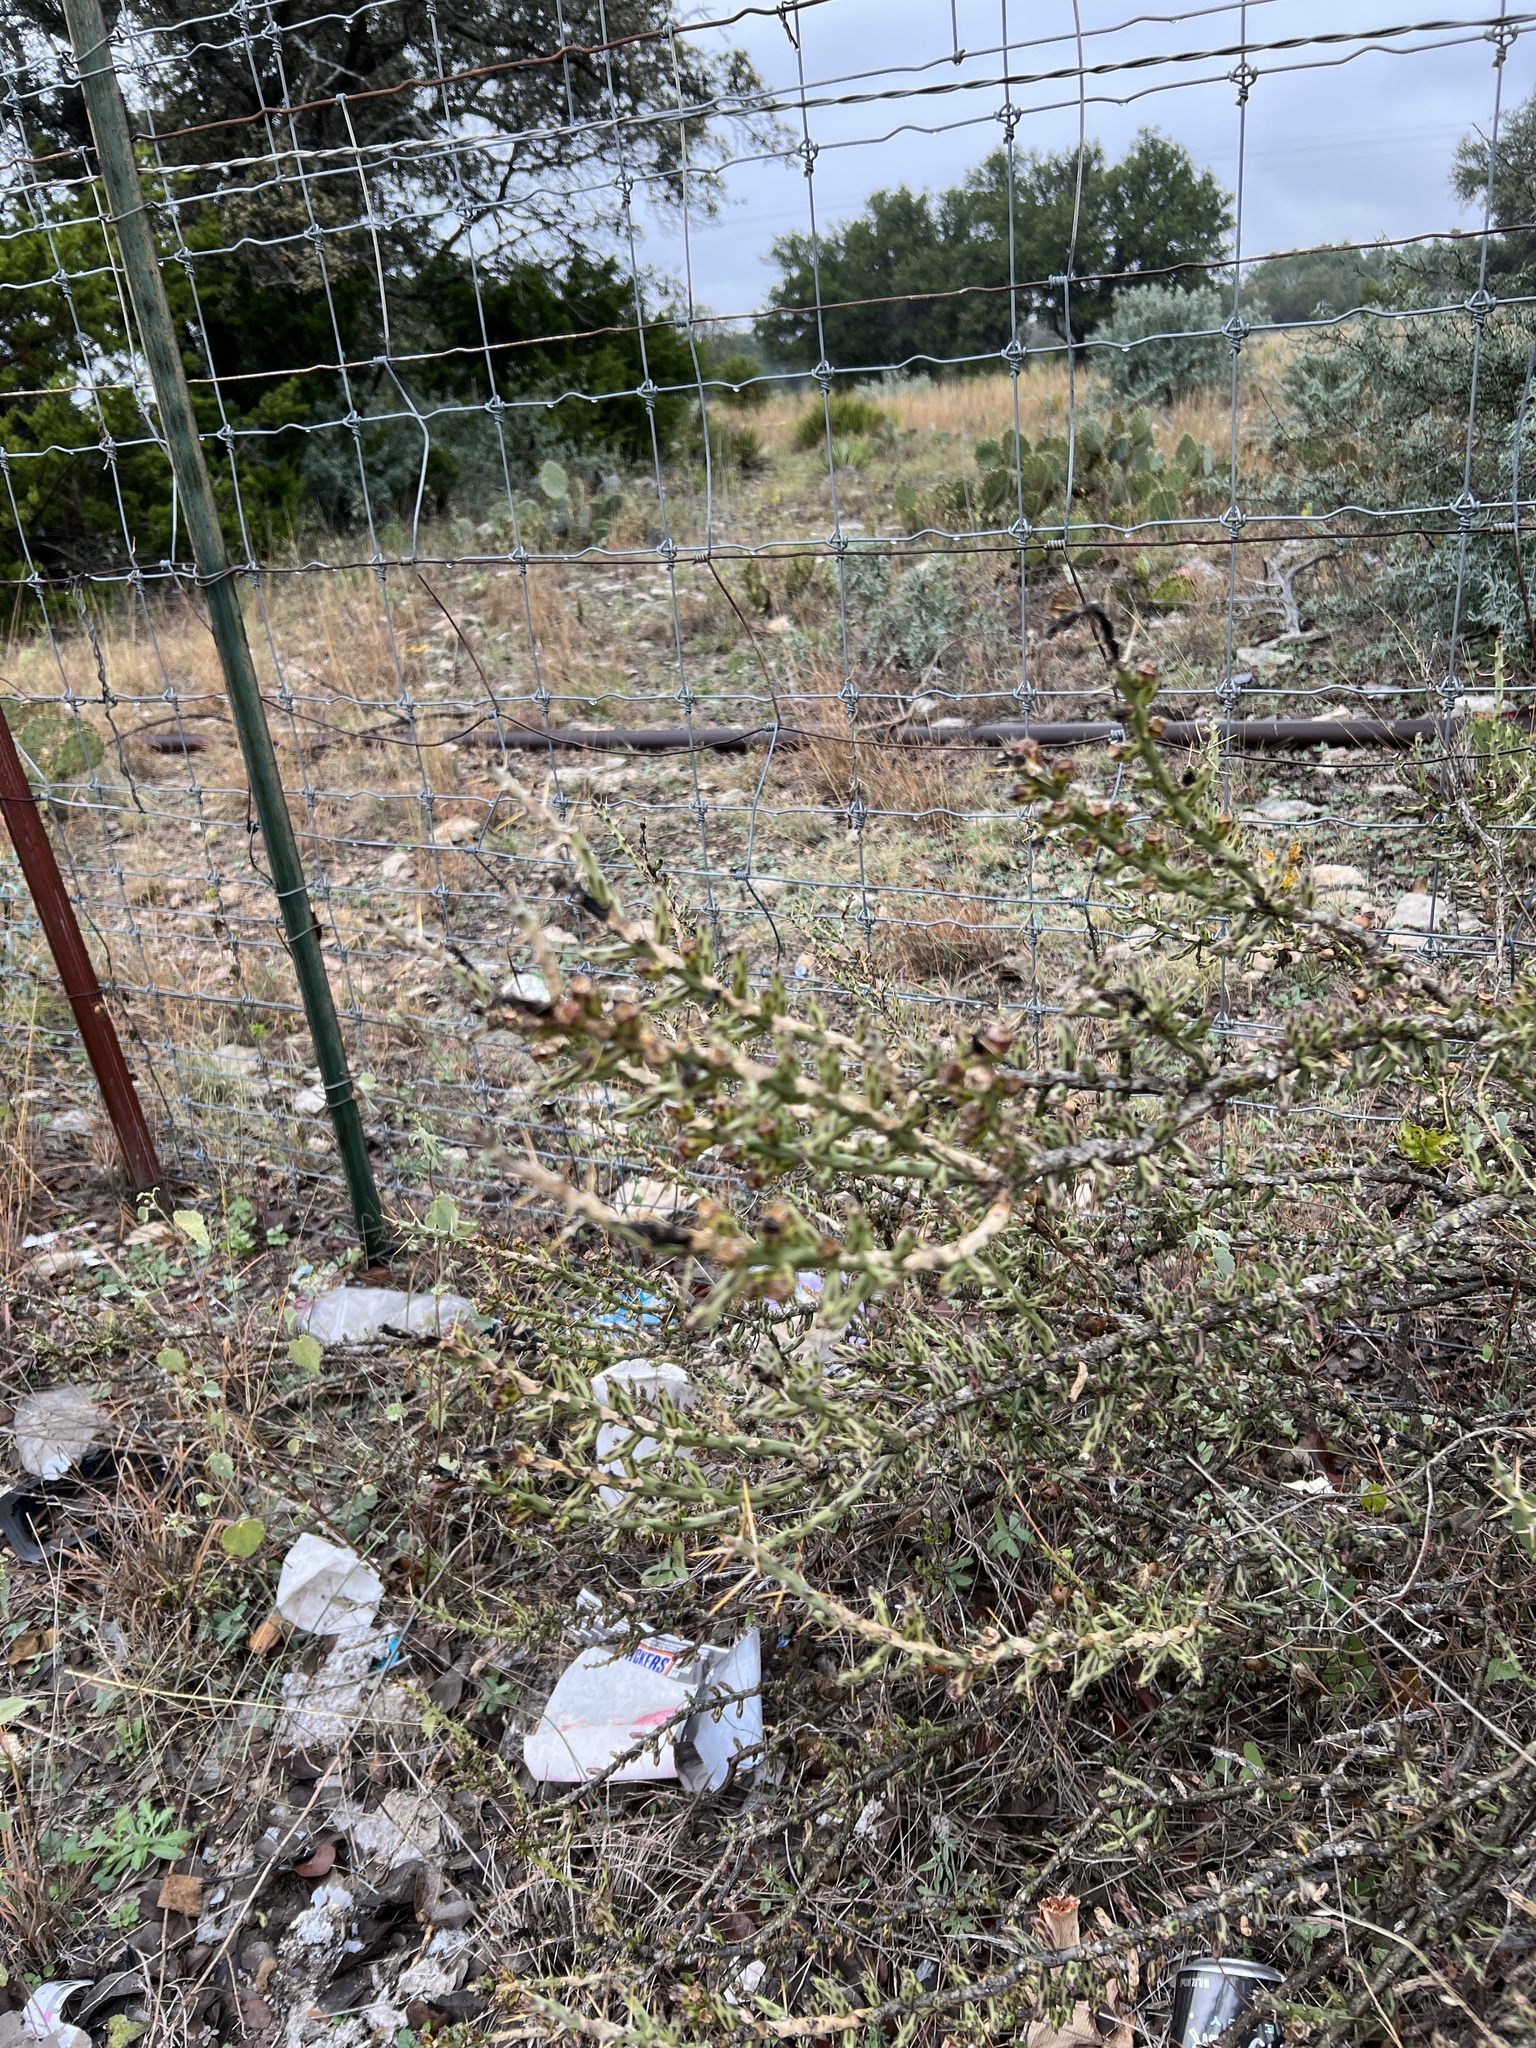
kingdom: Plantae
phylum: Tracheophyta
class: Magnoliopsida
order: Caryophyllales
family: Cactaceae
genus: Cylindropuntia
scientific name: Cylindropuntia leptocaulis
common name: Christmas cactus
